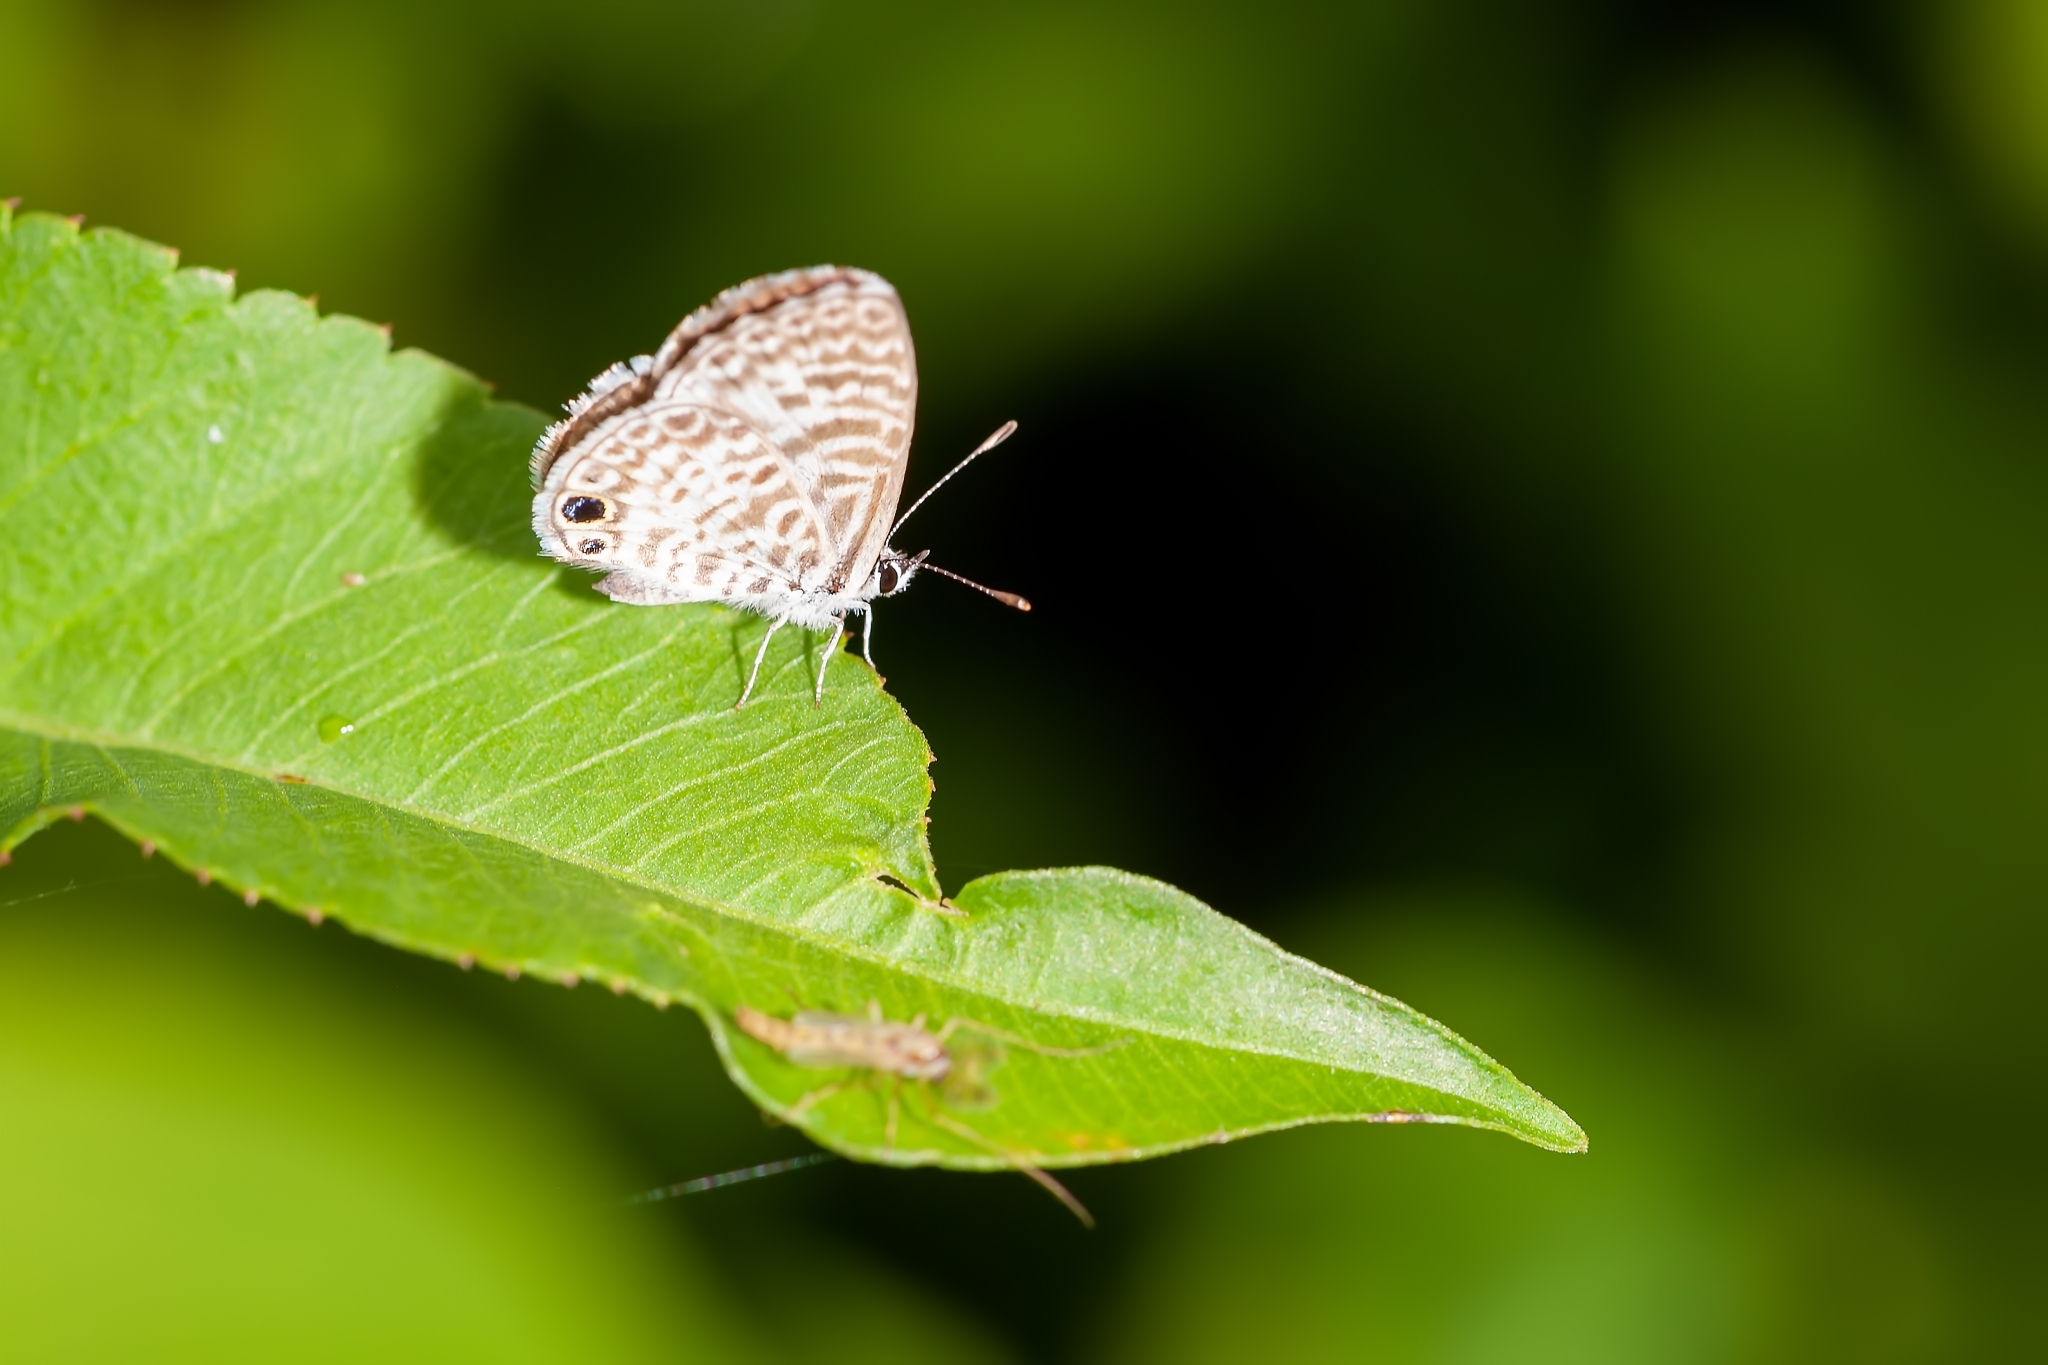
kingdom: Animalia
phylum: Arthropoda
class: Insecta
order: Lepidoptera
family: Lycaenidae
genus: Leptotes
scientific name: Leptotes cassius
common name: Cassius blue
